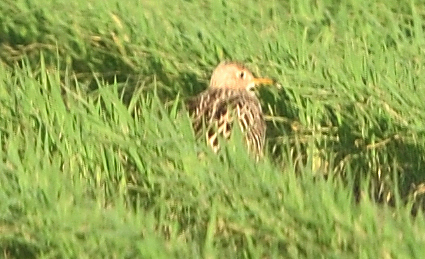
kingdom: Animalia
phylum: Chordata
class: Aves
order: Charadriiformes
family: Scolopacidae
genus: Bartramia
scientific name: Bartramia longicauda
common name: Upland sandpiper
